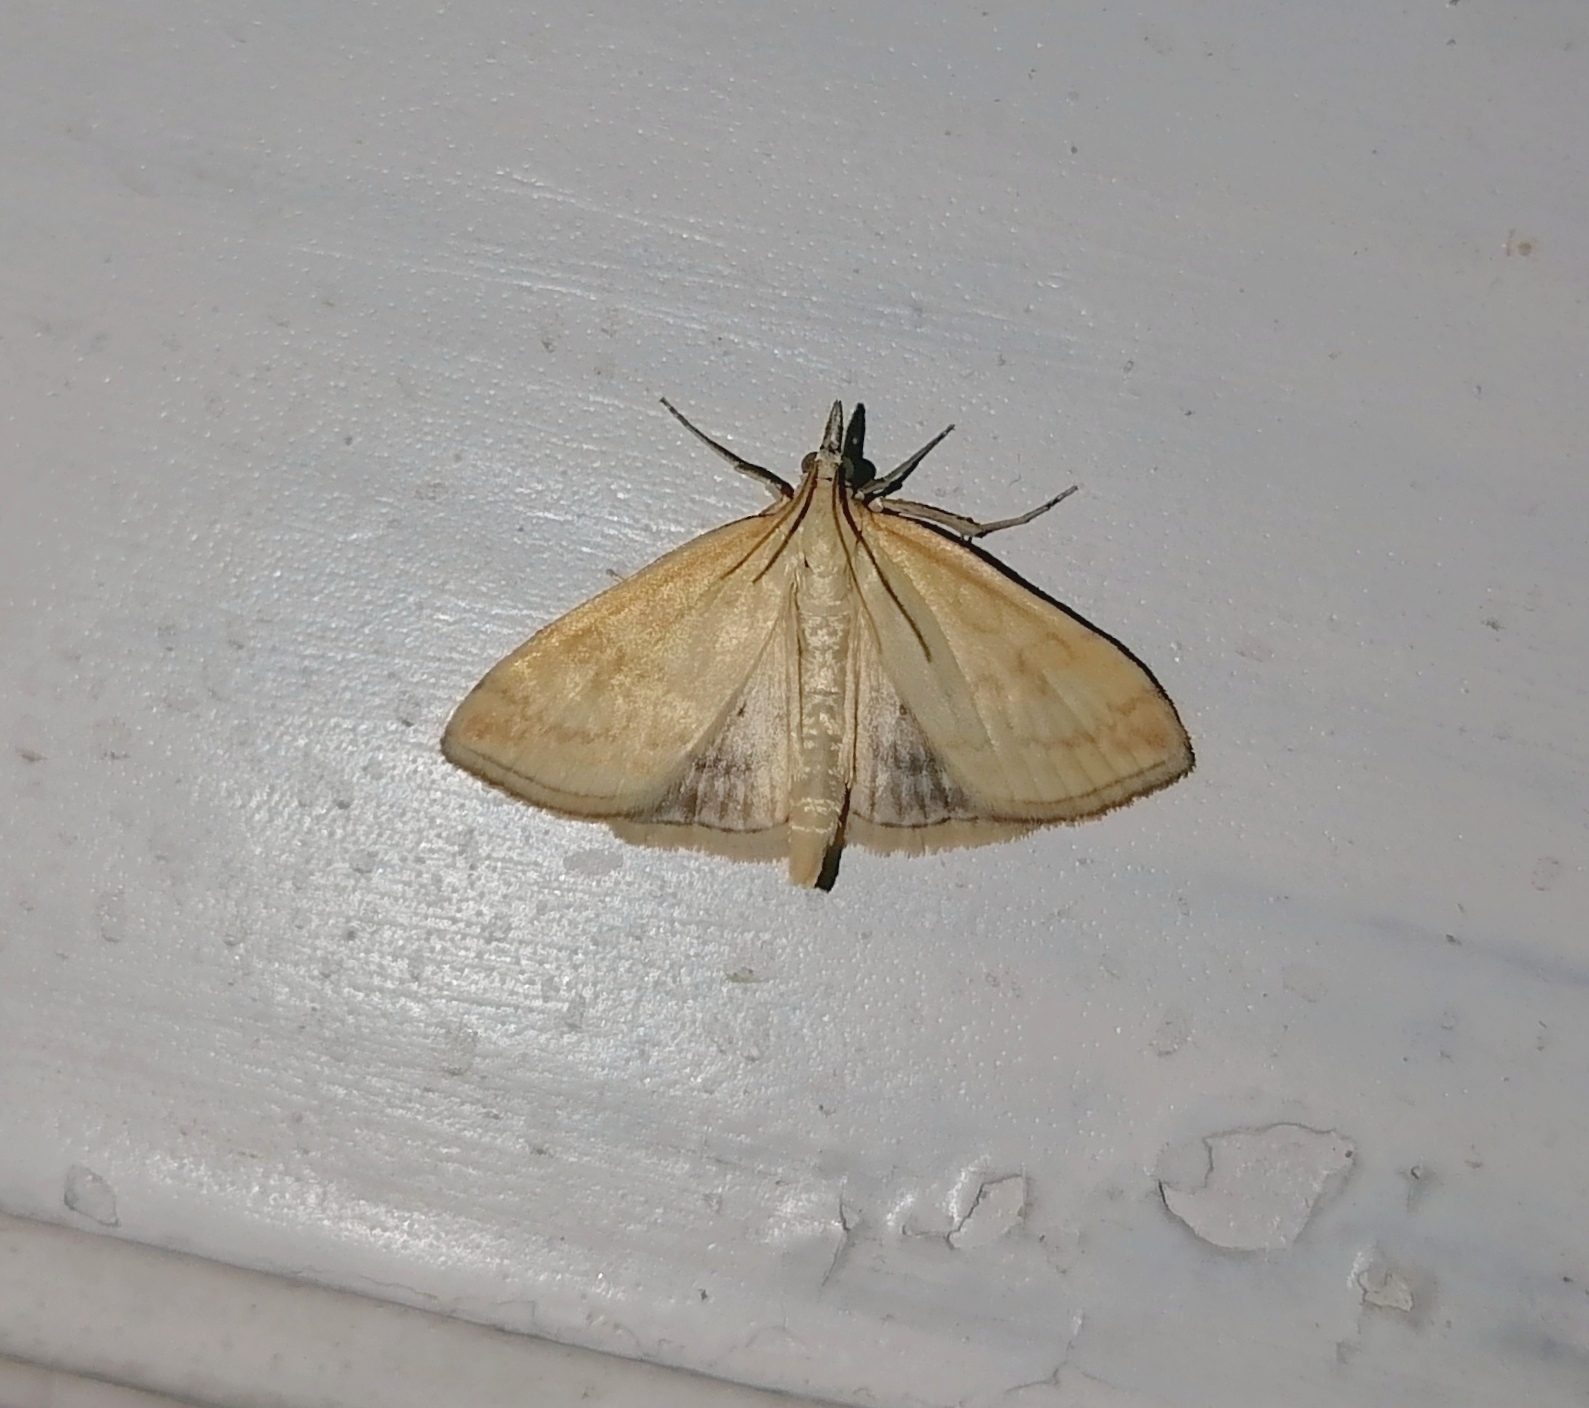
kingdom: Animalia
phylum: Arthropoda
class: Insecta
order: Lepidoptera
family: Crambidae
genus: Udea
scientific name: Udea lutealis
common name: Pale straw pearl
